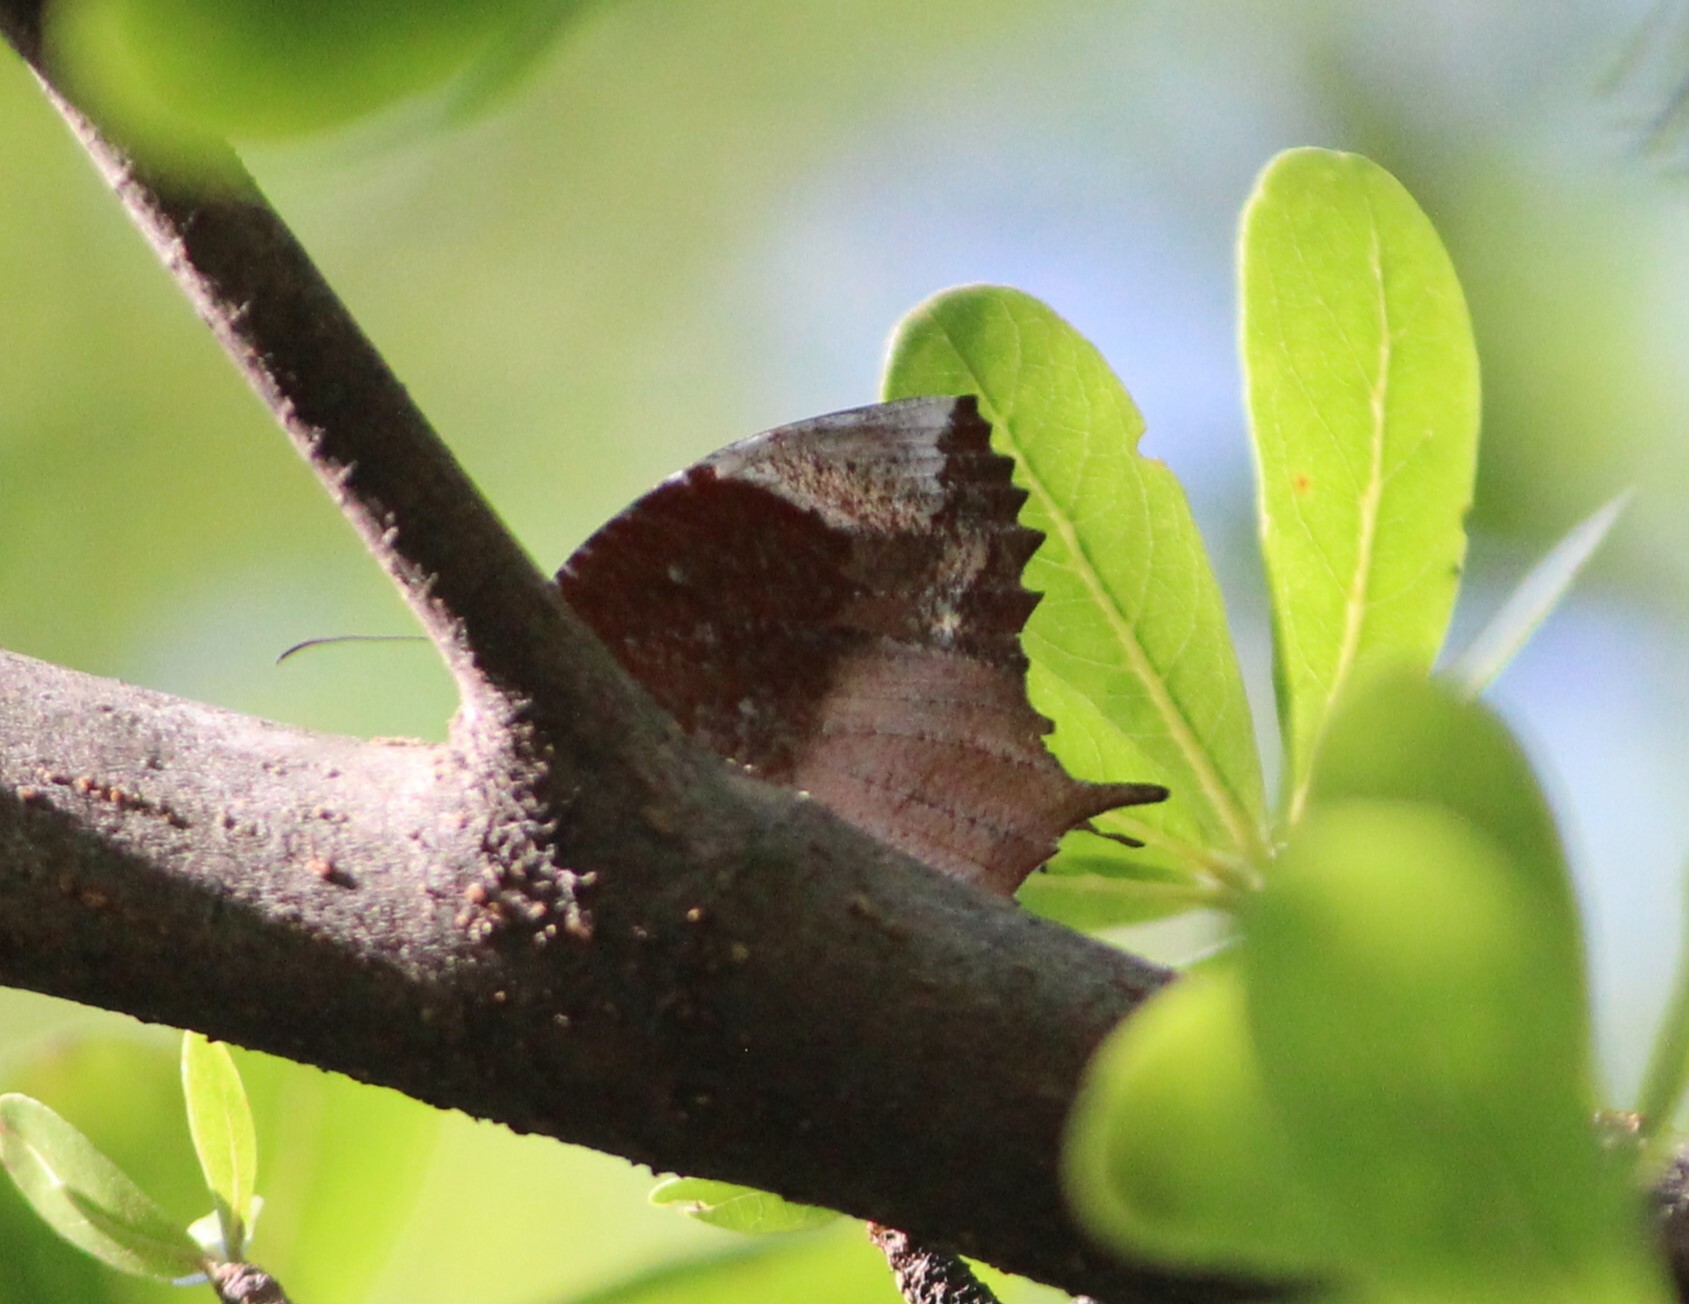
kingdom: Animalia
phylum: Arthropoda
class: Insecta
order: Lepidoptera
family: Nymphalidae
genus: Elymnias
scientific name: Elymnias caudata
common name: Tailed palmfly
